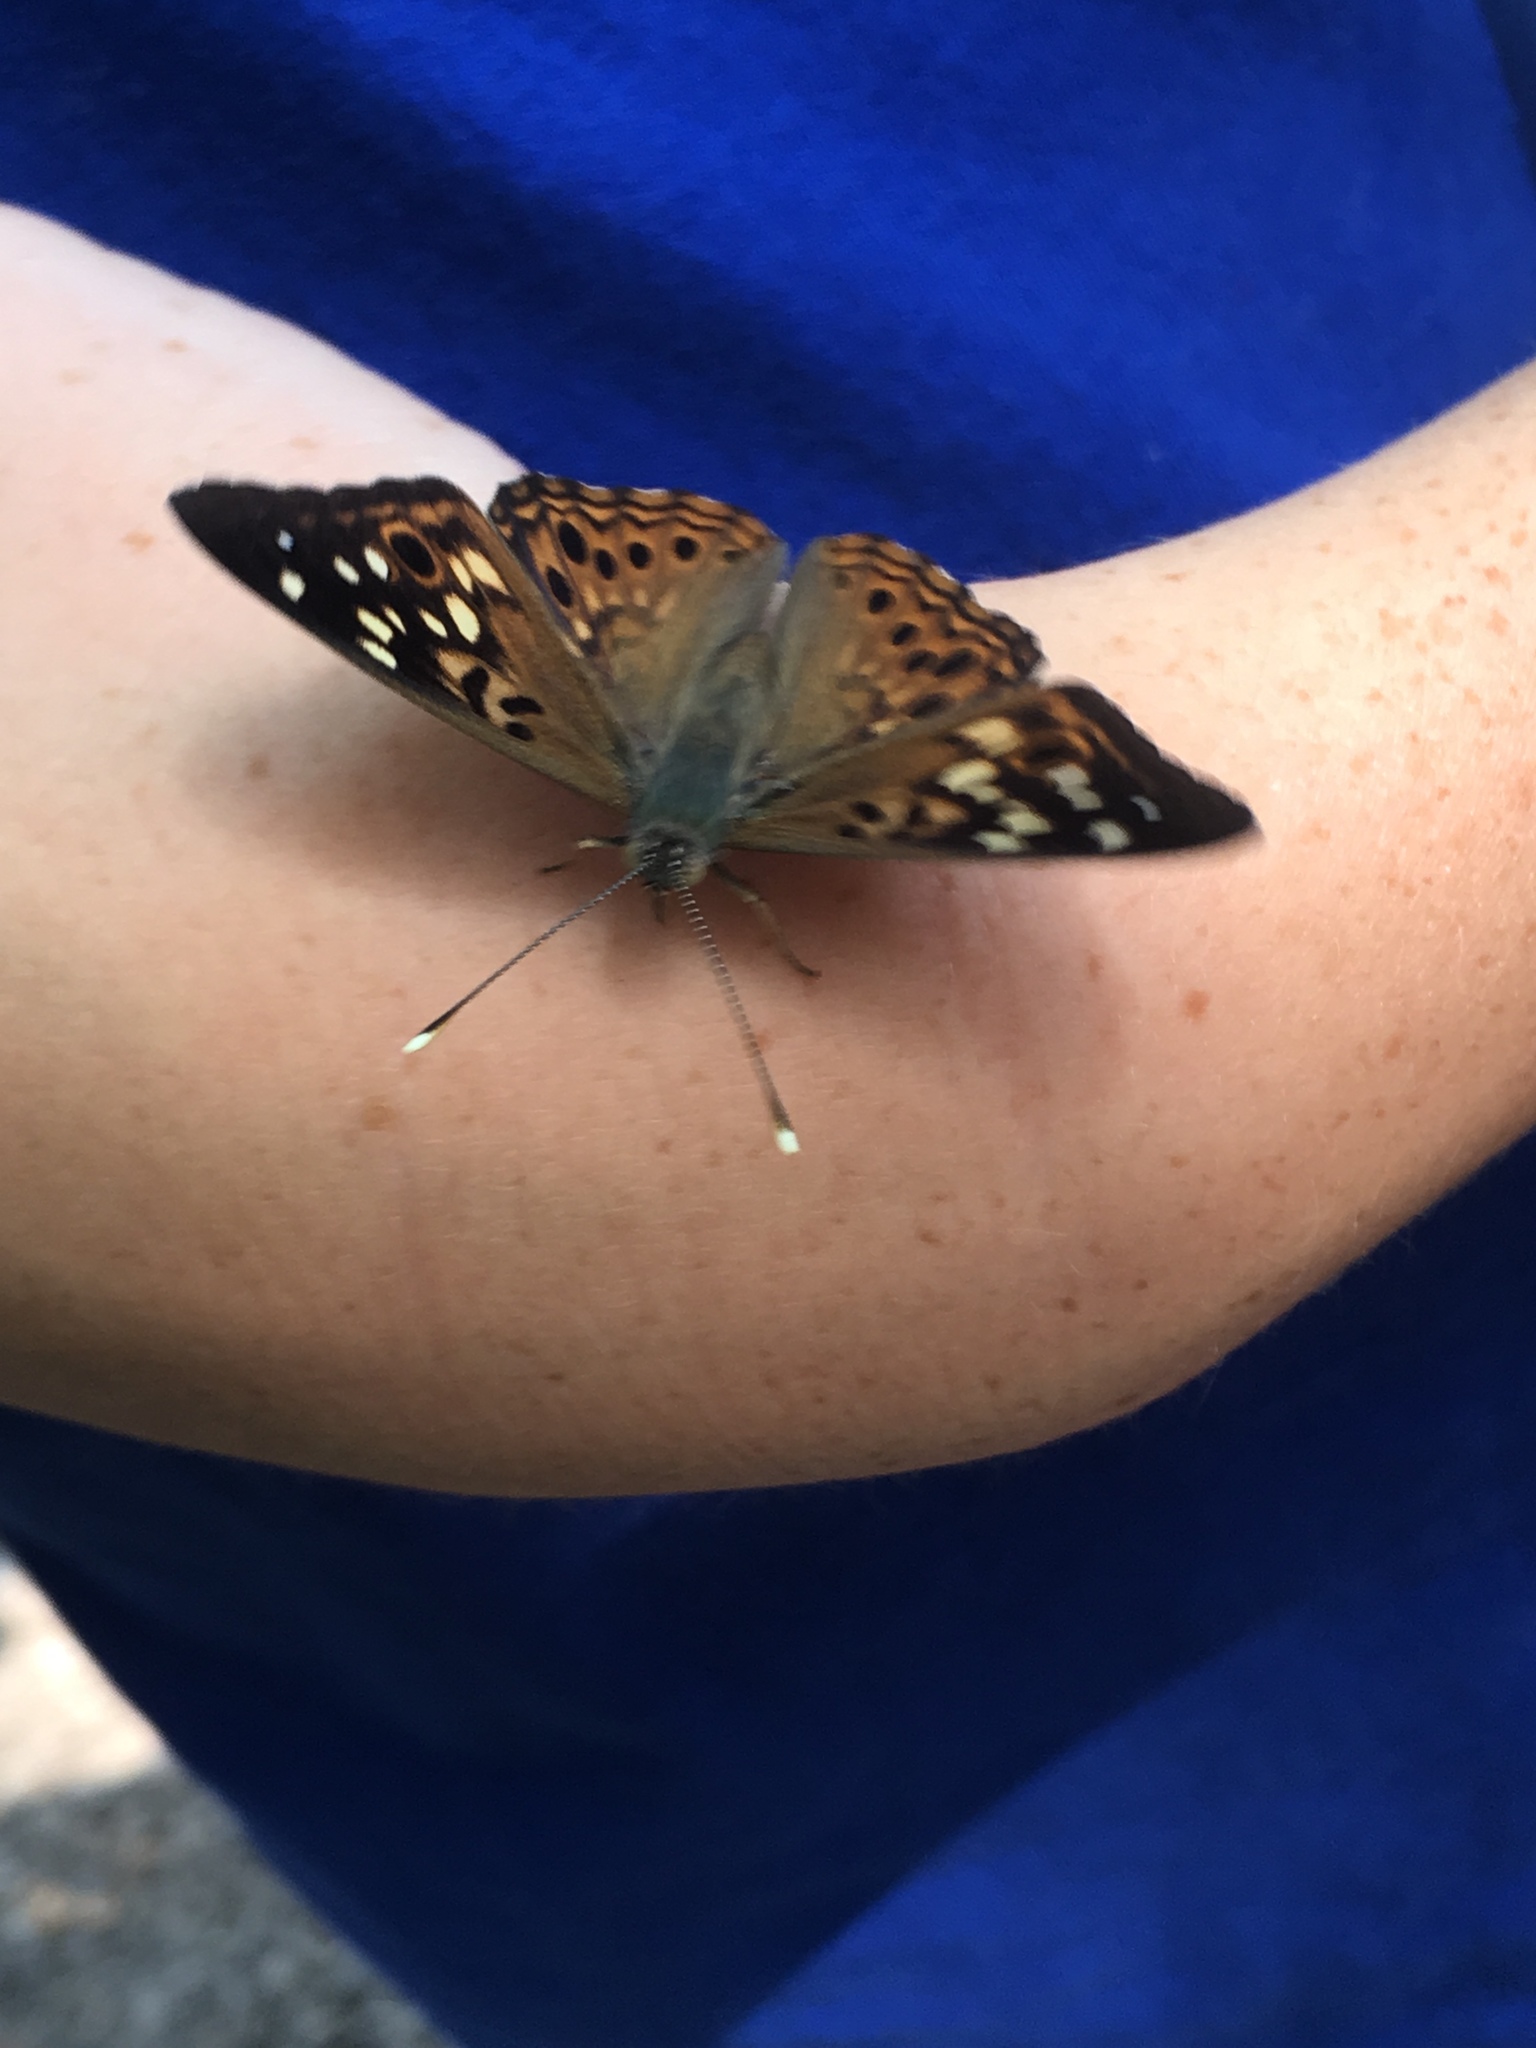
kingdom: Animalia
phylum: Arthropoda
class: Insecta
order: Lepidoptera
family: Nymphalidae
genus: Asterocampa
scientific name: Asterocampa celtis
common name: Hackberry emperor
